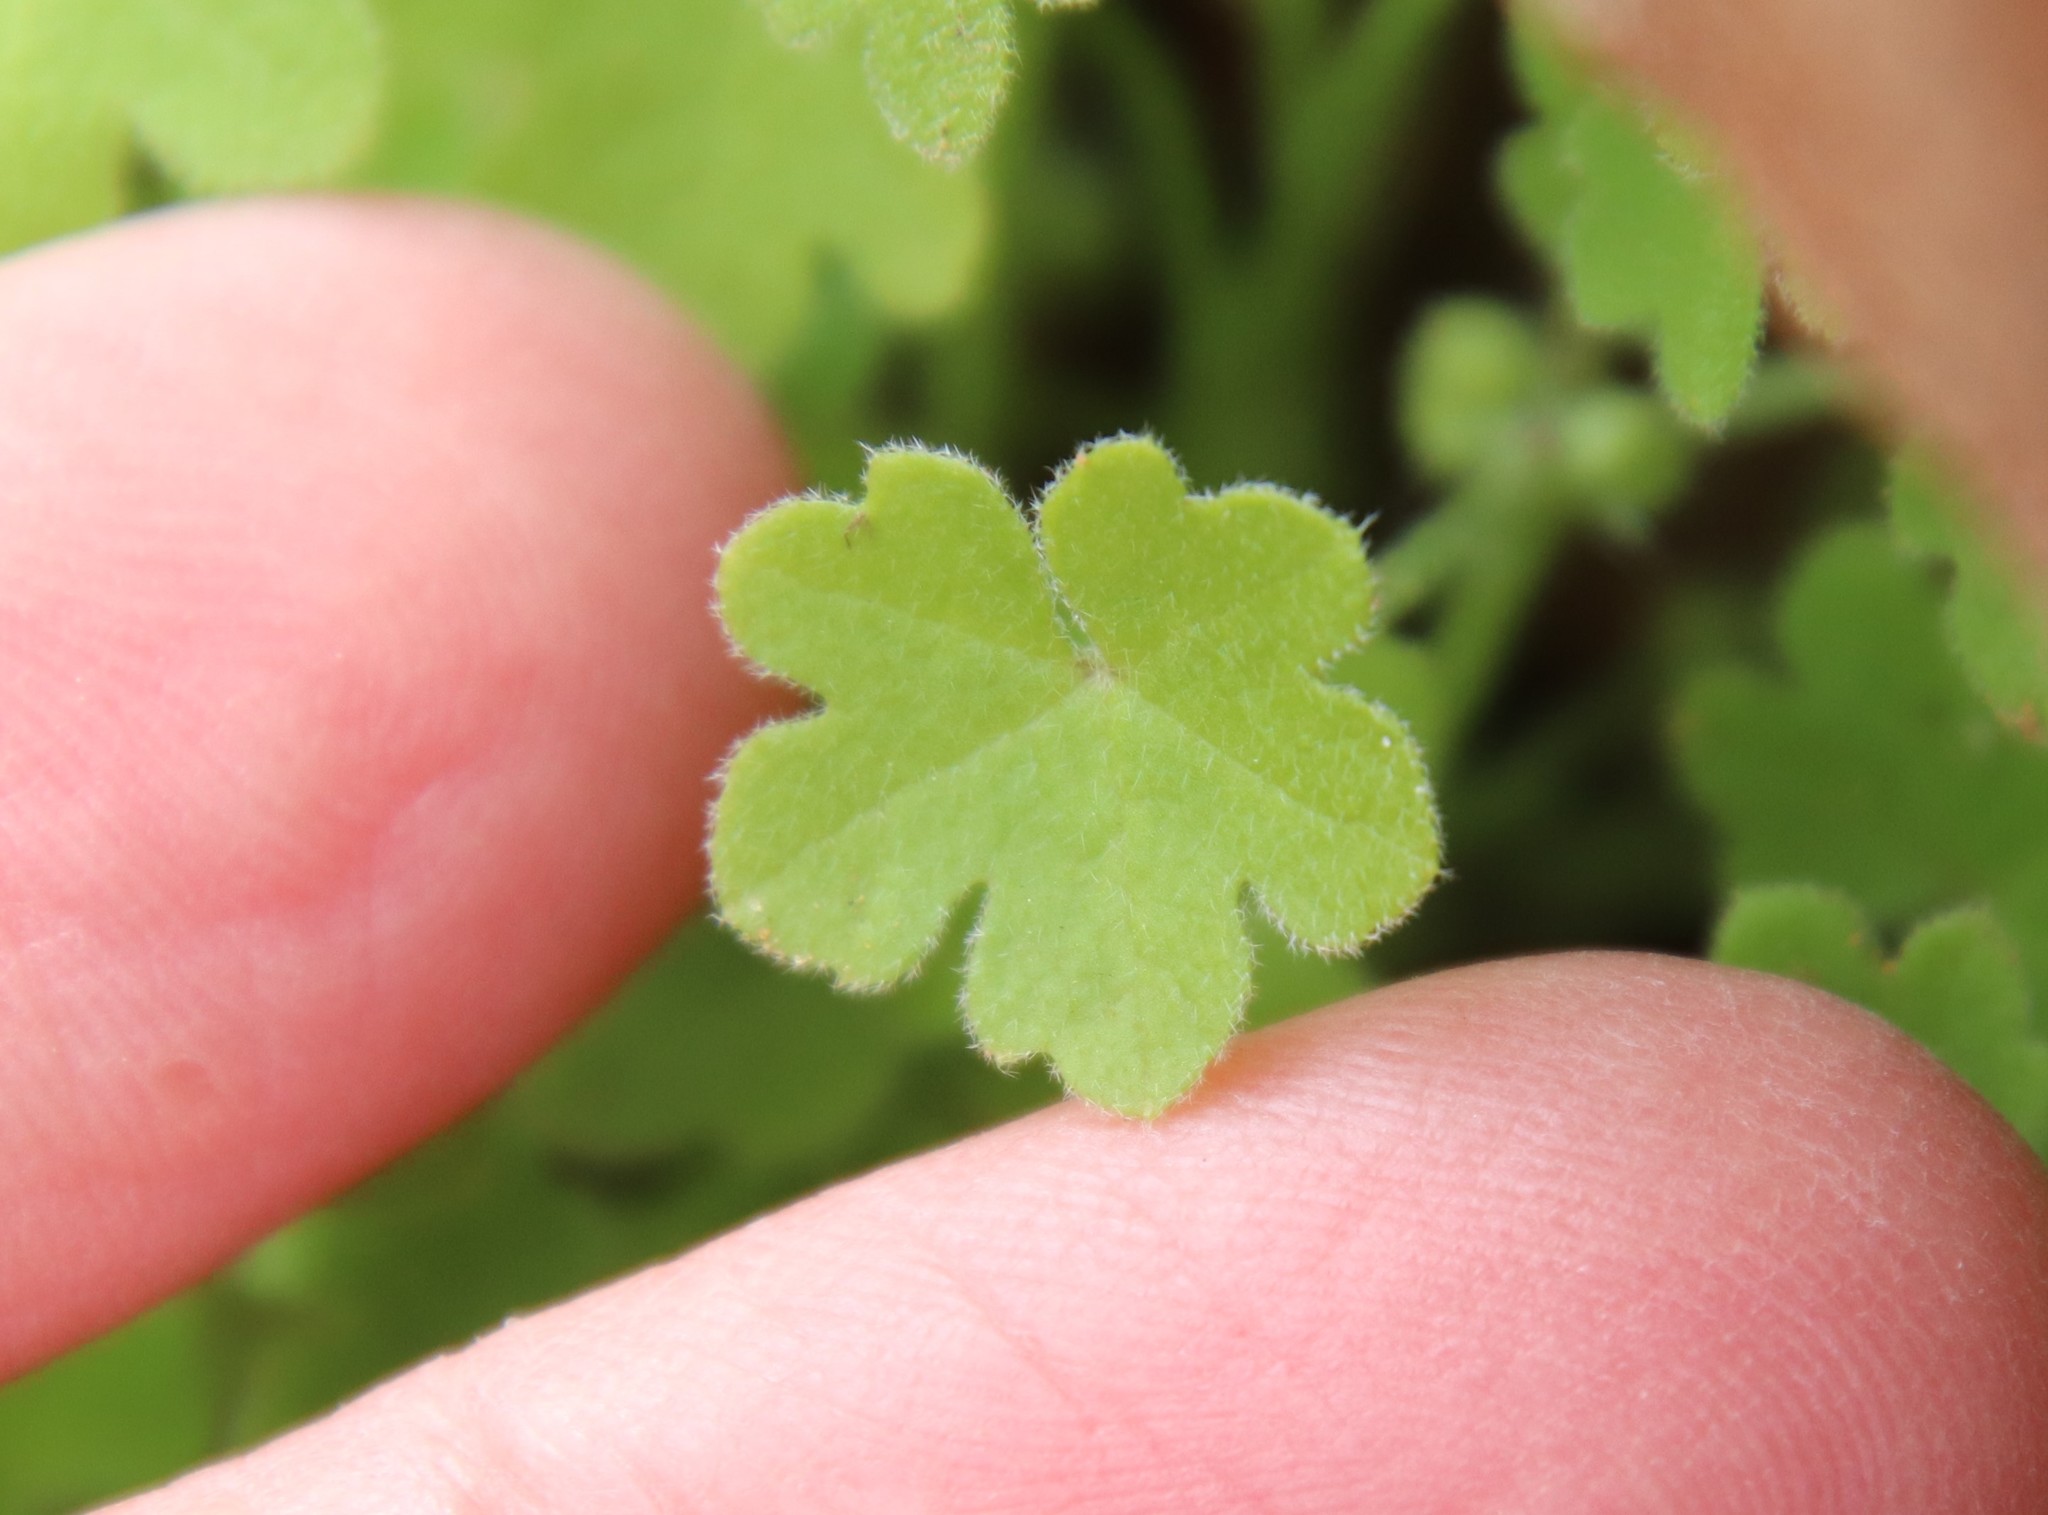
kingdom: Plantae
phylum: Tracheophyta
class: Magnoliopsida
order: Apiales
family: Apiaceae
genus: Bowlesia
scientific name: Bowlesia incana
